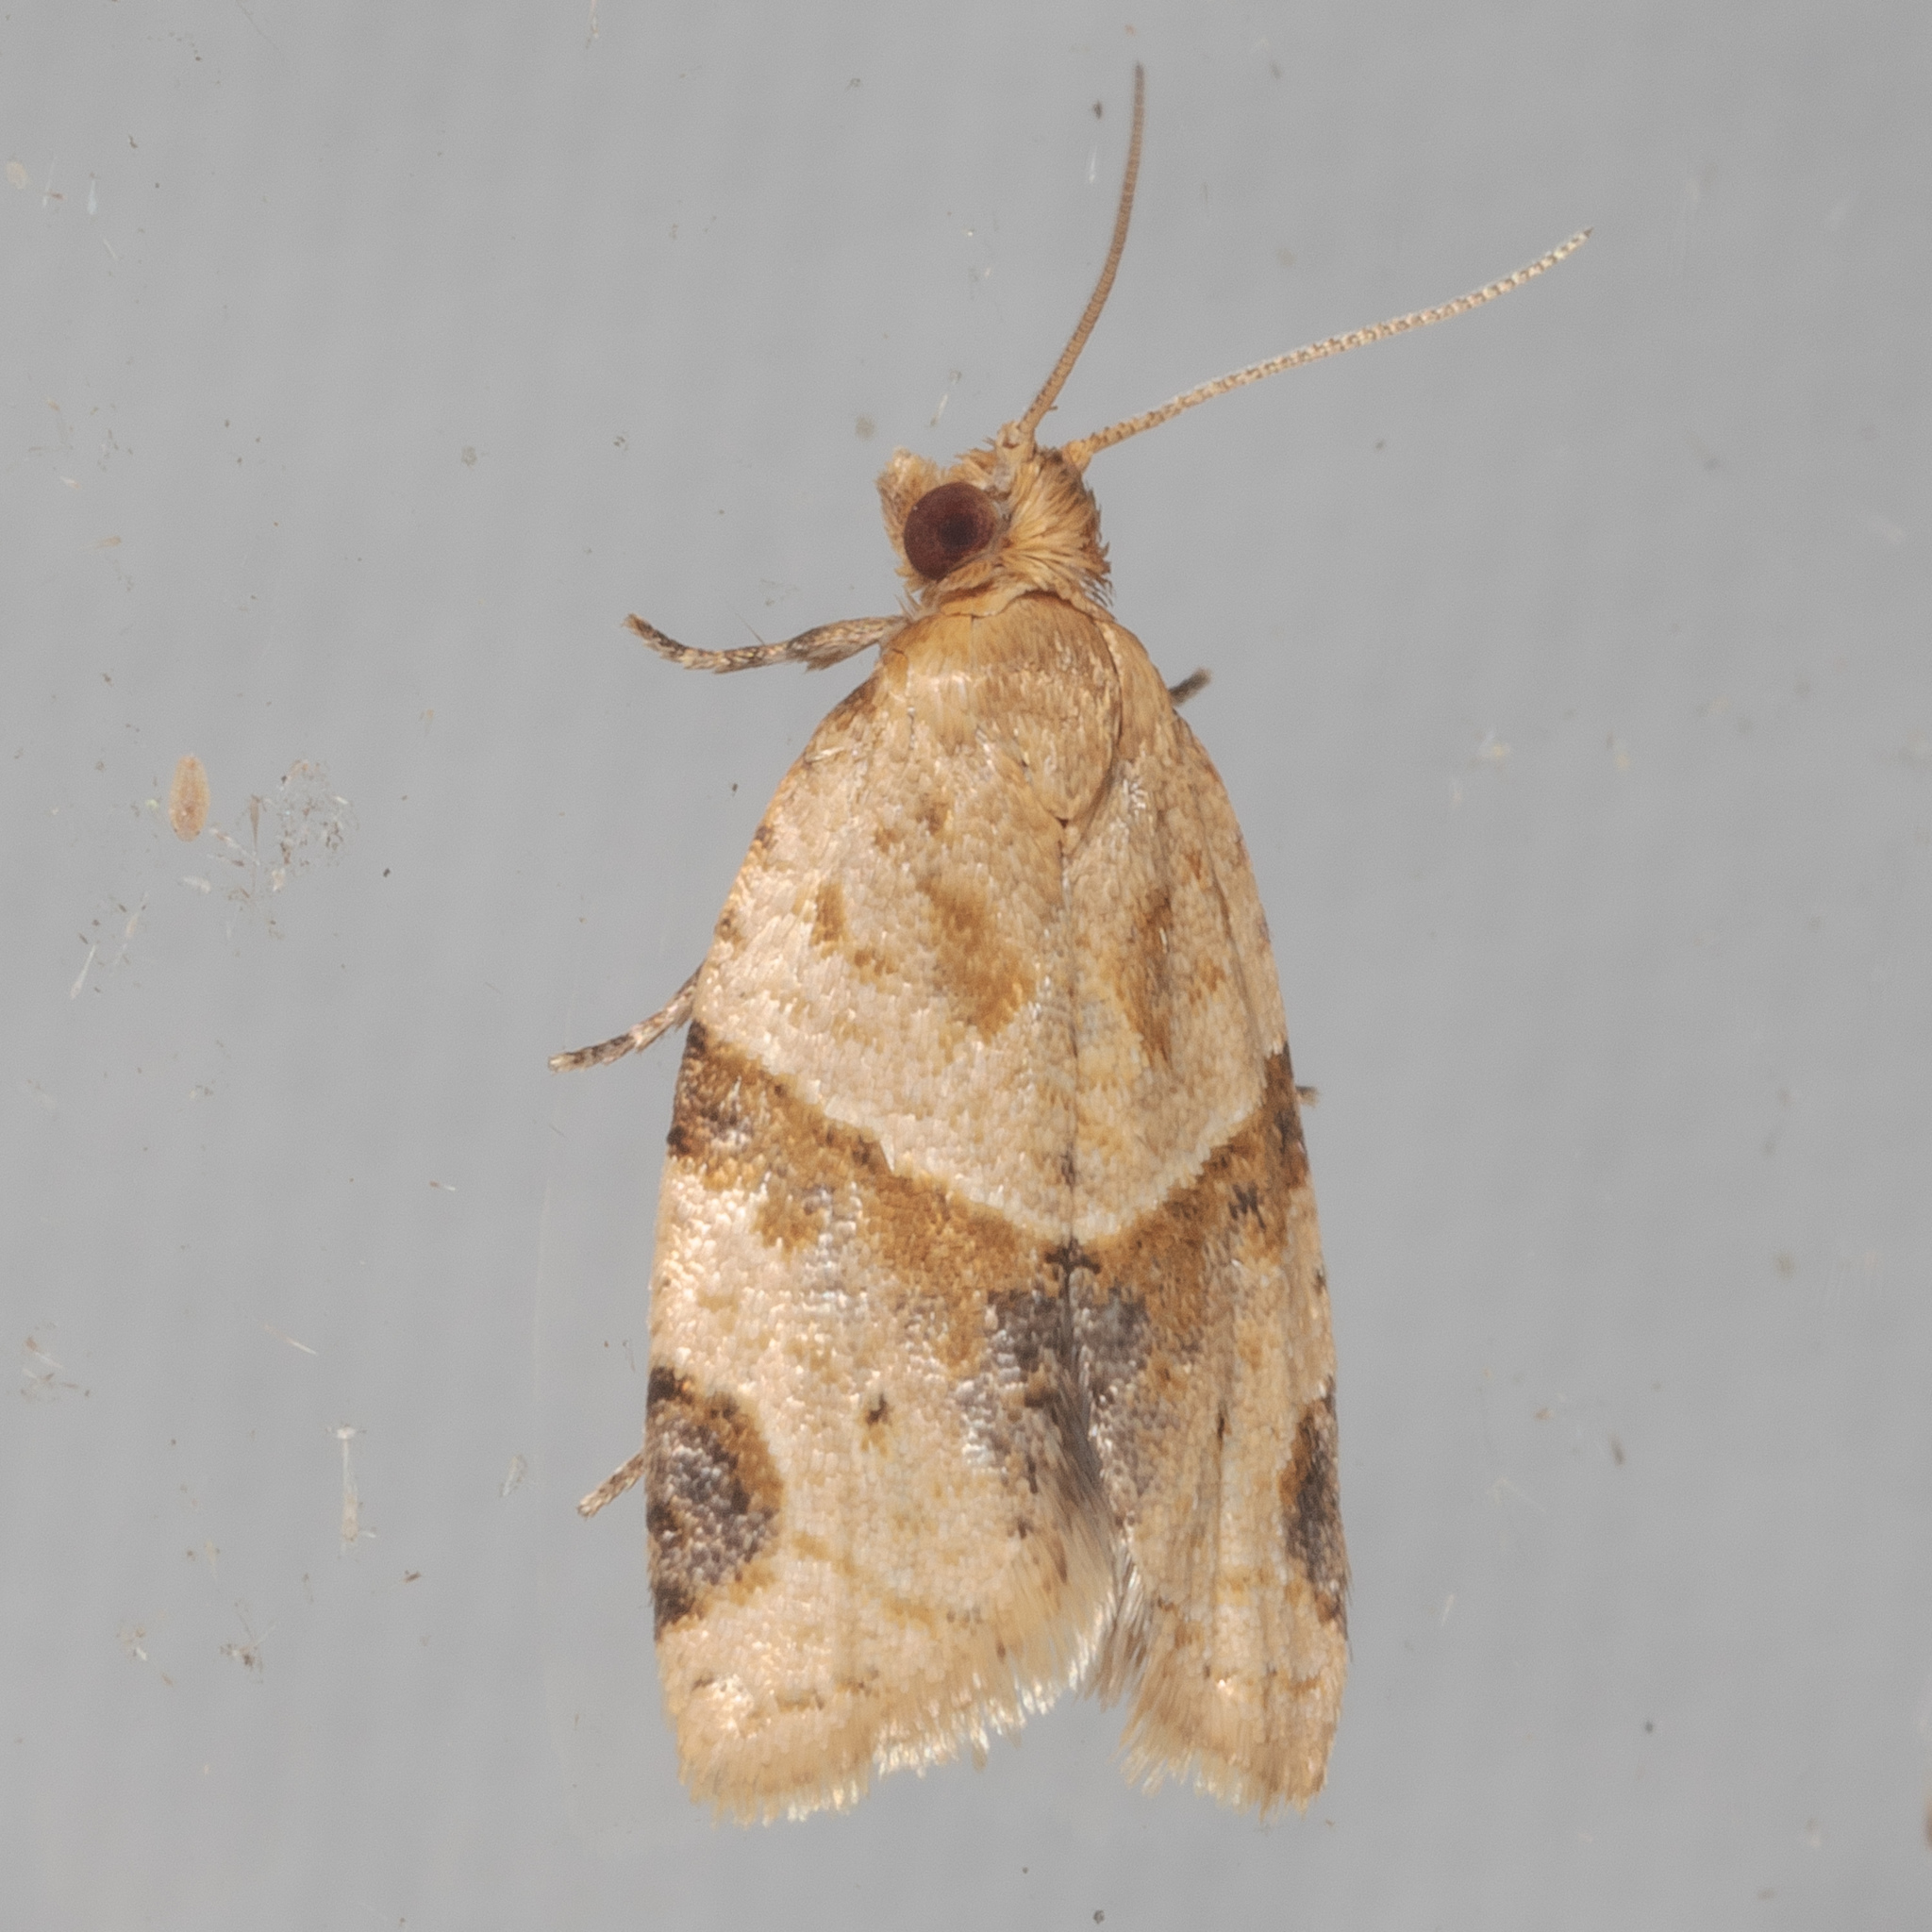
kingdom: Animalia
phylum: Arthropoda
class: Insecta
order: Lepidoptera
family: Tortricidae
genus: Clepsis
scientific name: Clepsis peritana
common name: Garden tortrix
